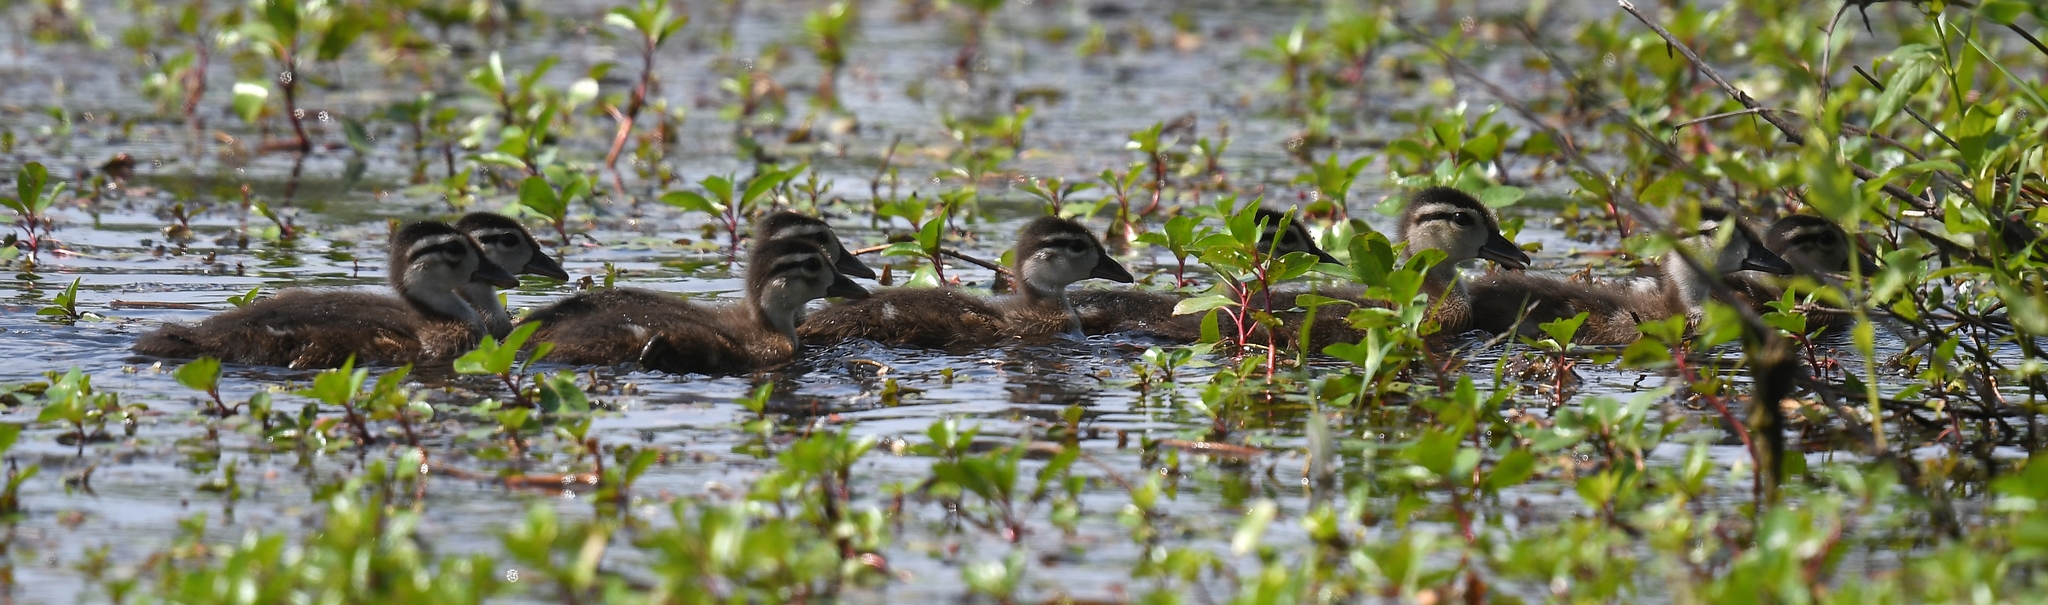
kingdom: Animalia
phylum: Chordata
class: Aves
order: Anseriformes
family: Anatidae
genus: Aix
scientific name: Aix sponsa
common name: Wood duck
